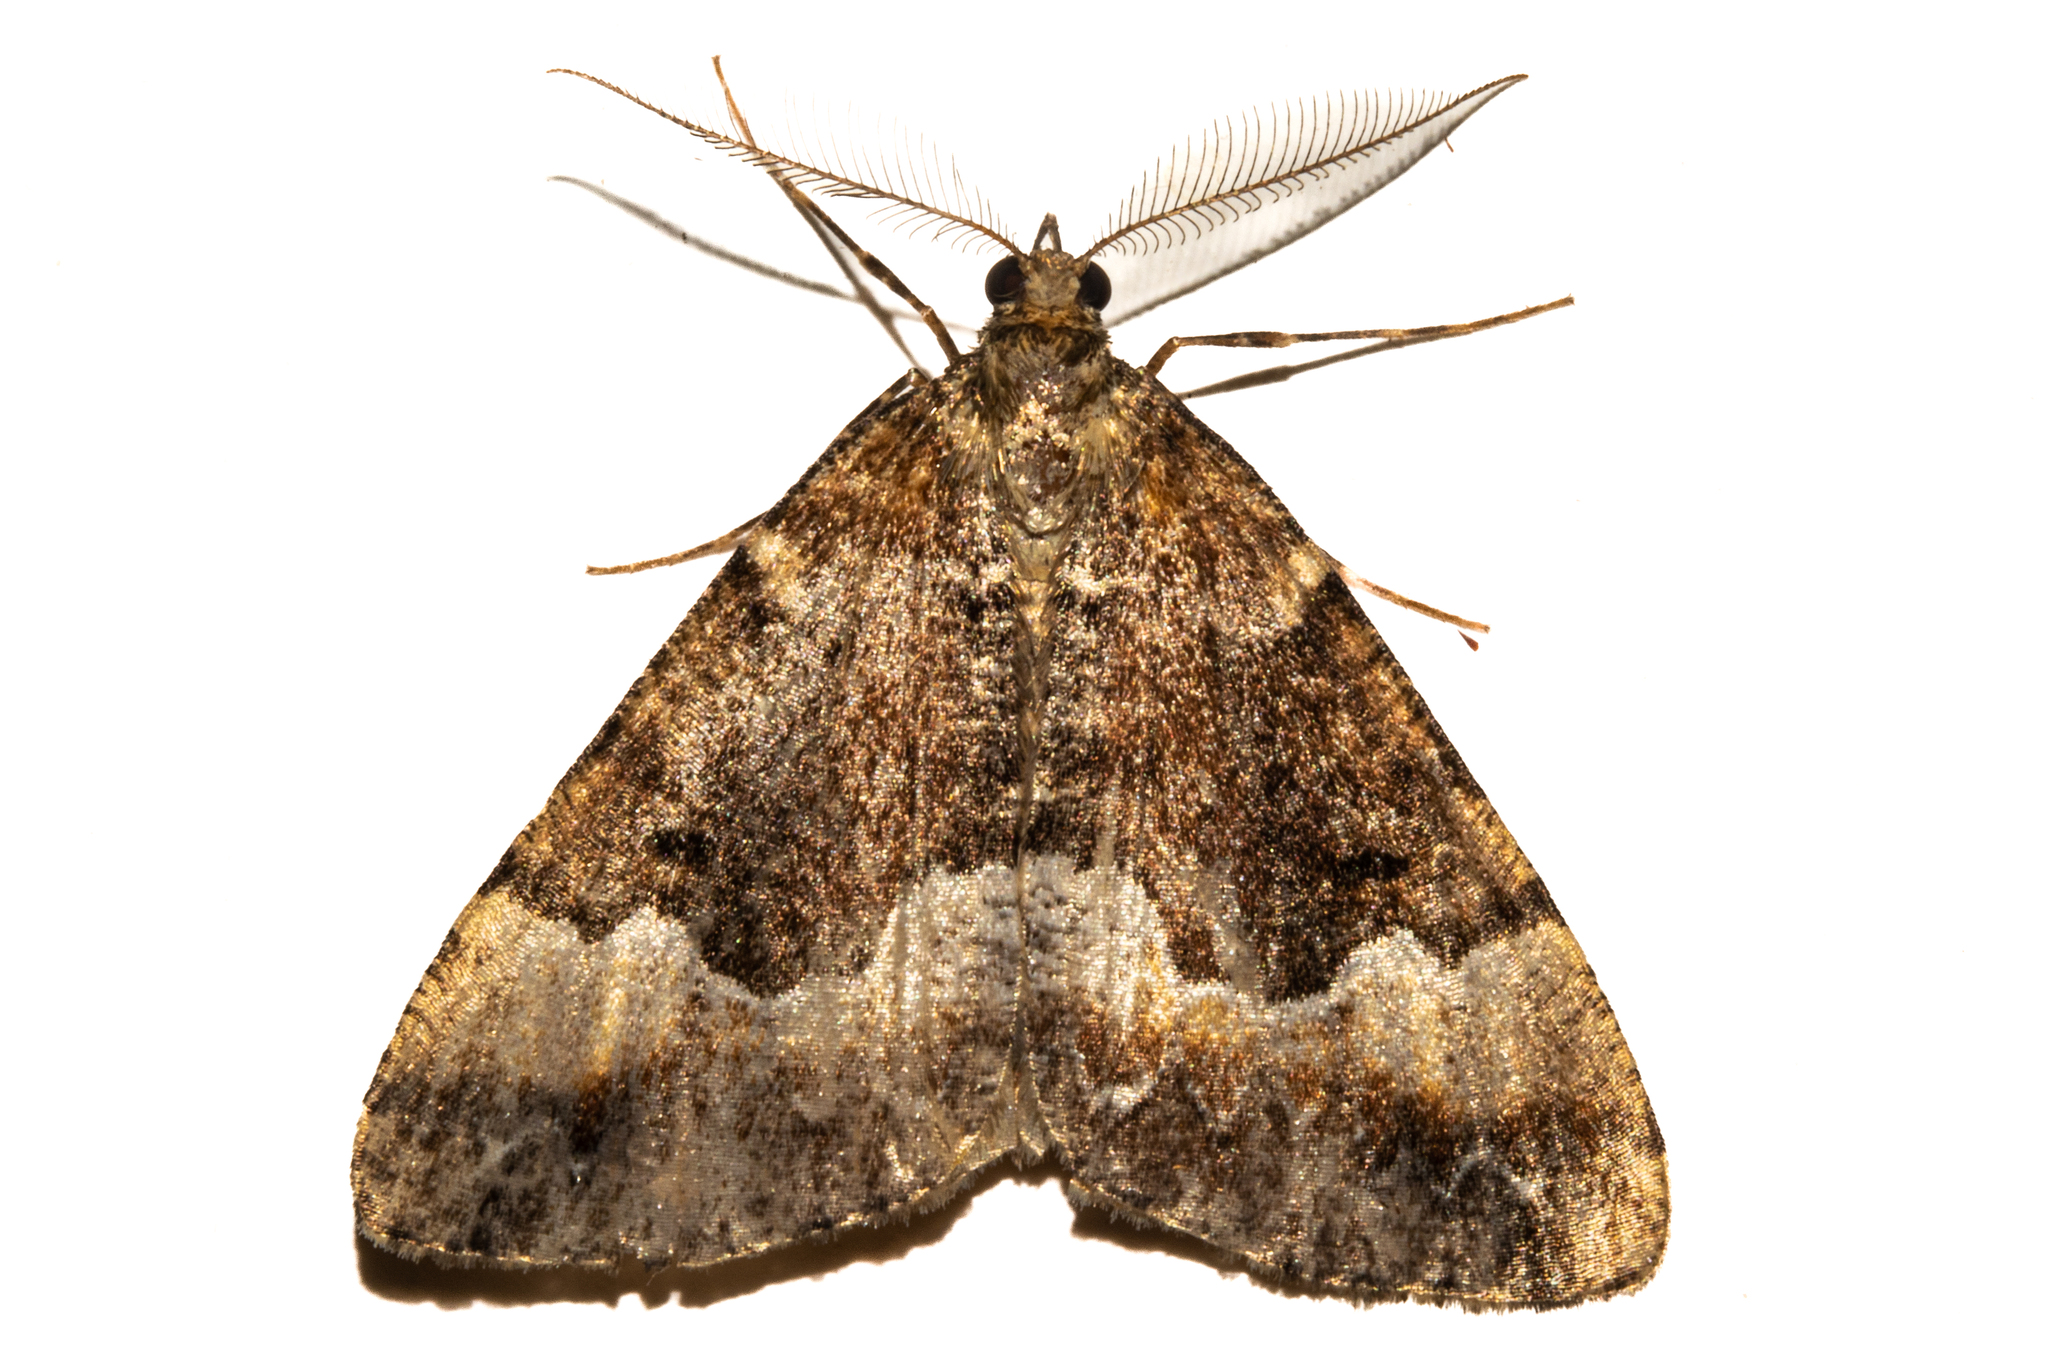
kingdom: Animalia
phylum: Arthropoda
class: Insecta
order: Lepidoptera
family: Geometridae
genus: Pseudocoremia
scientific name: Pseudocoremia insignita
